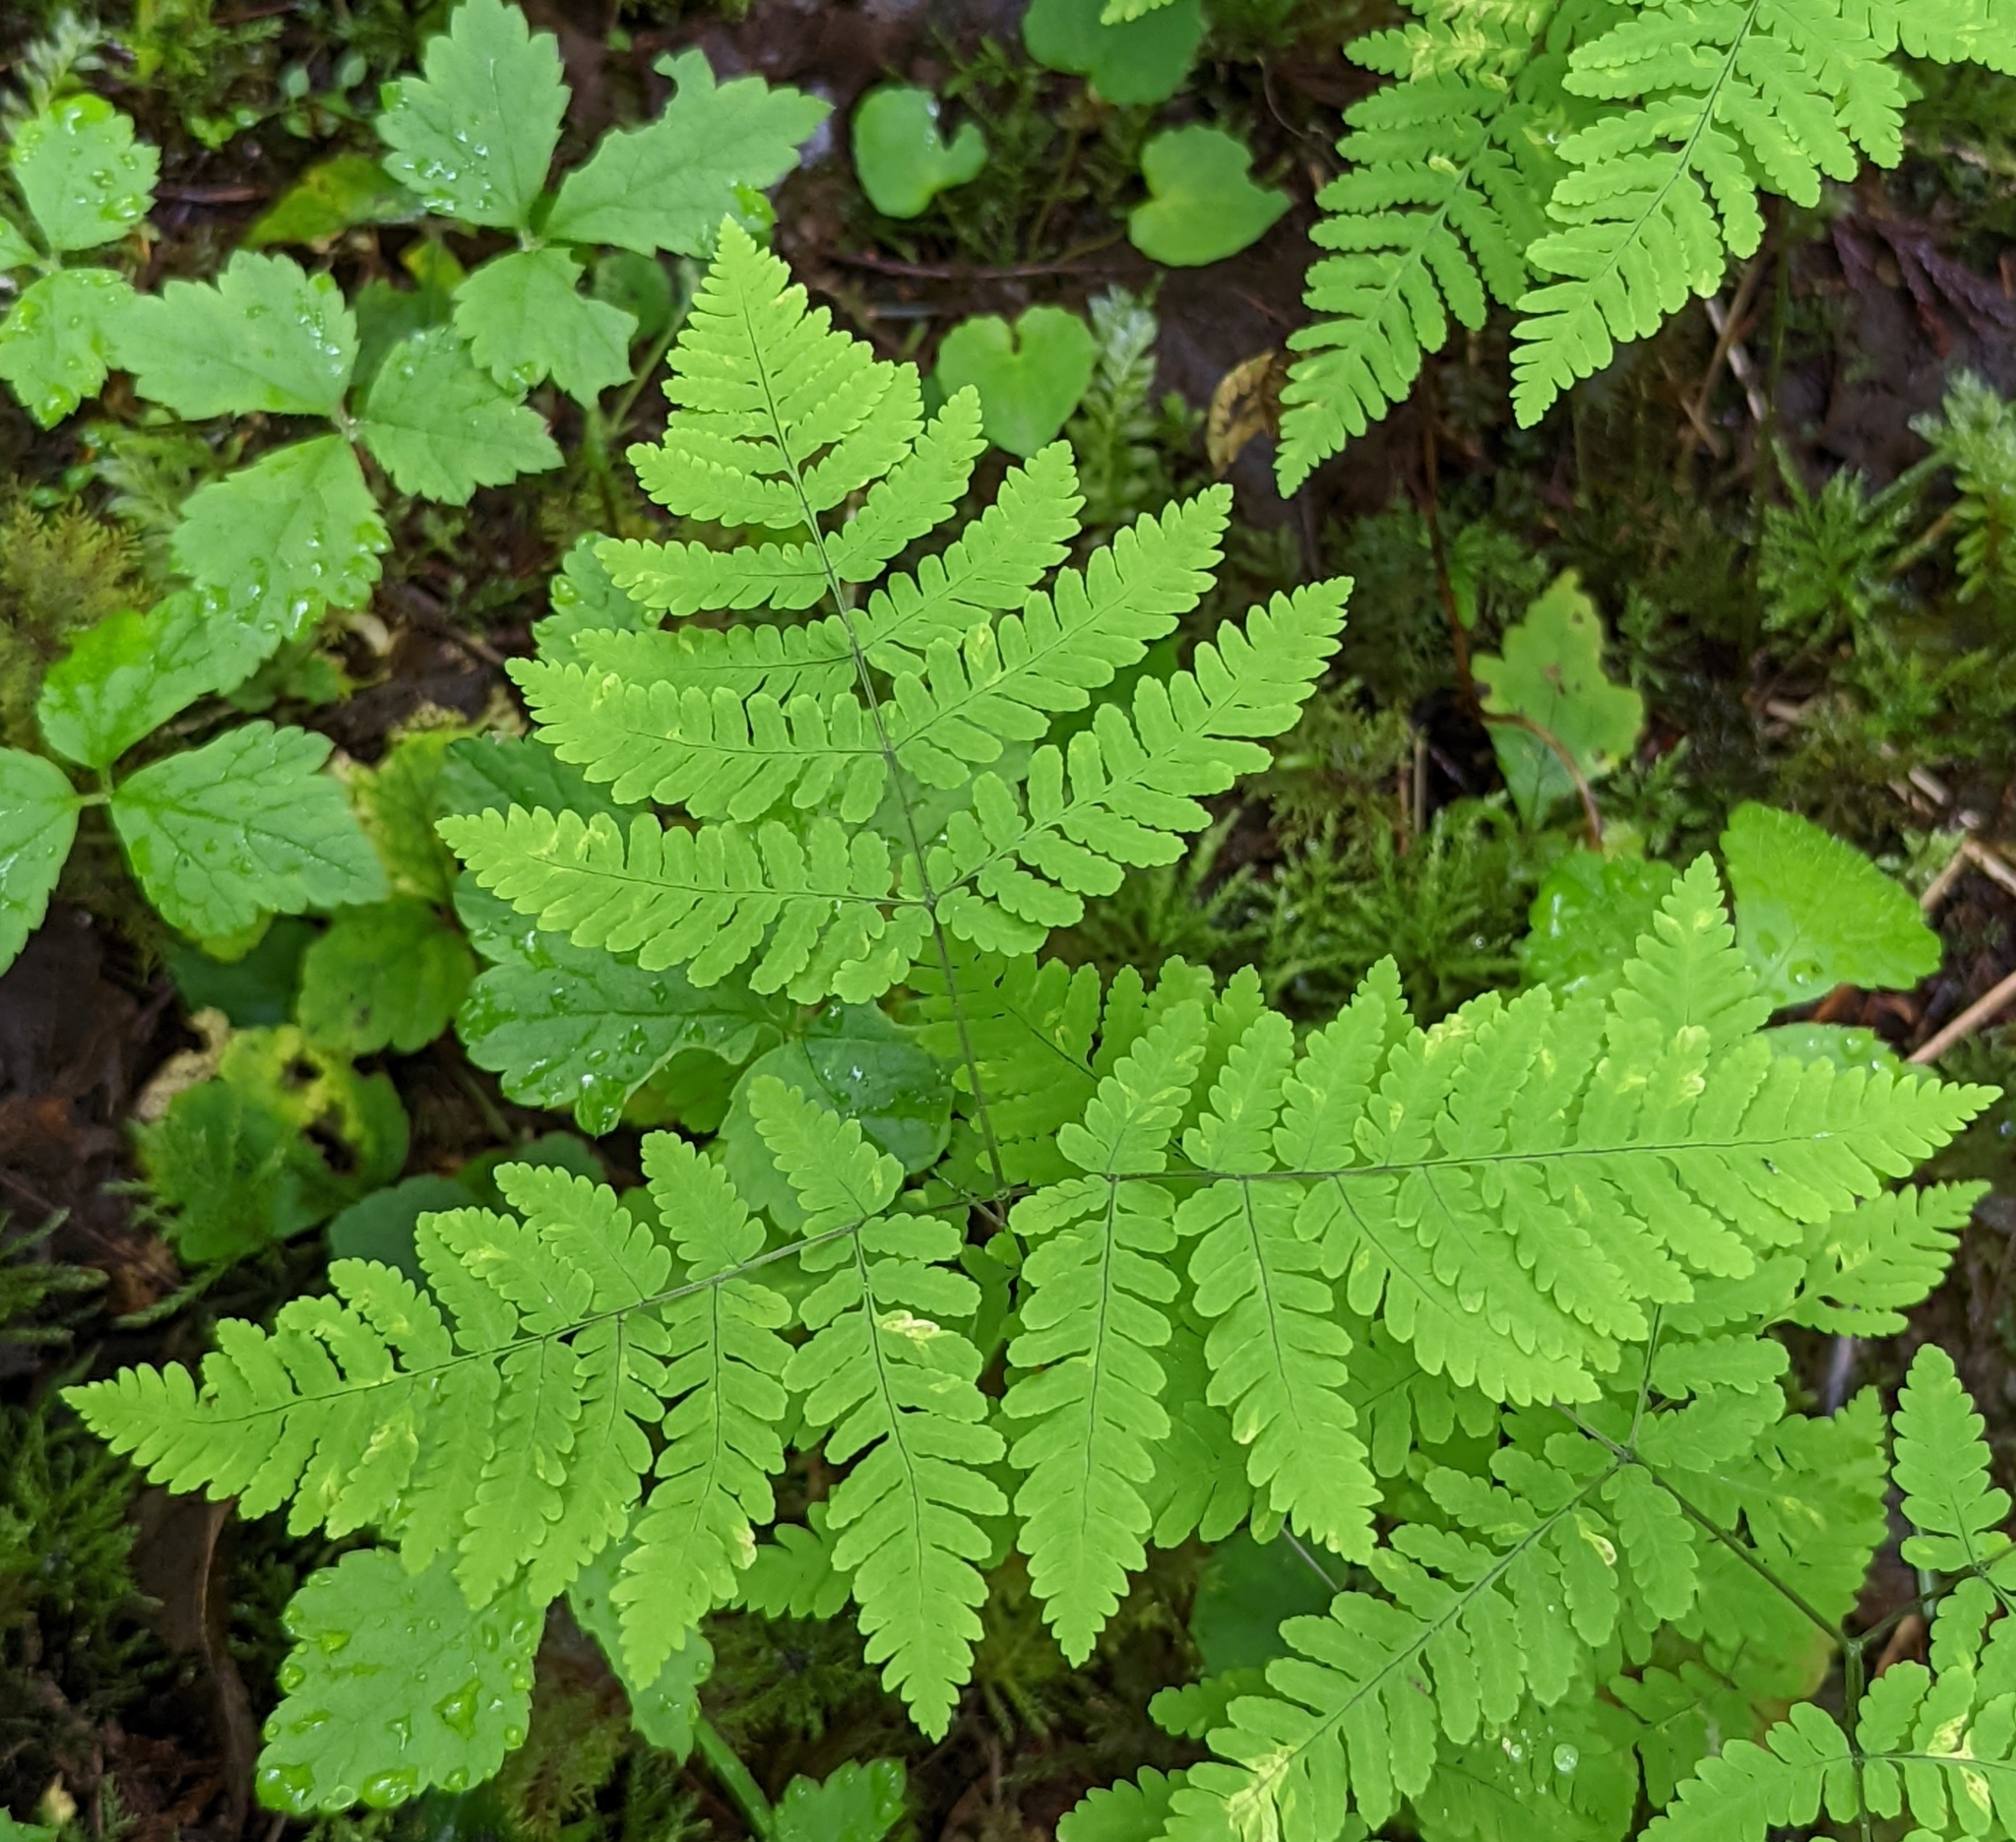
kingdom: Plantae
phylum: Tracheophyta
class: Polypodiopsida
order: Polypodiales
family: Cystopteridaceae
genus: Gymnocarpium
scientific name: Gymnocarpium disjunctum
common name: Western oak fern
